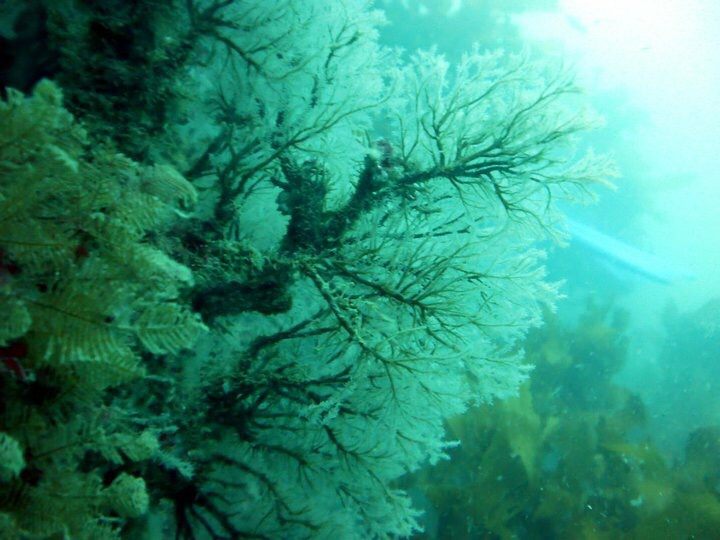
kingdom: Animalia
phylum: Cnidaria
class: Hydrozoa
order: Anthoathecata
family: Solanderiidae
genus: Solanderia
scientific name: Solanderia ericopsis
